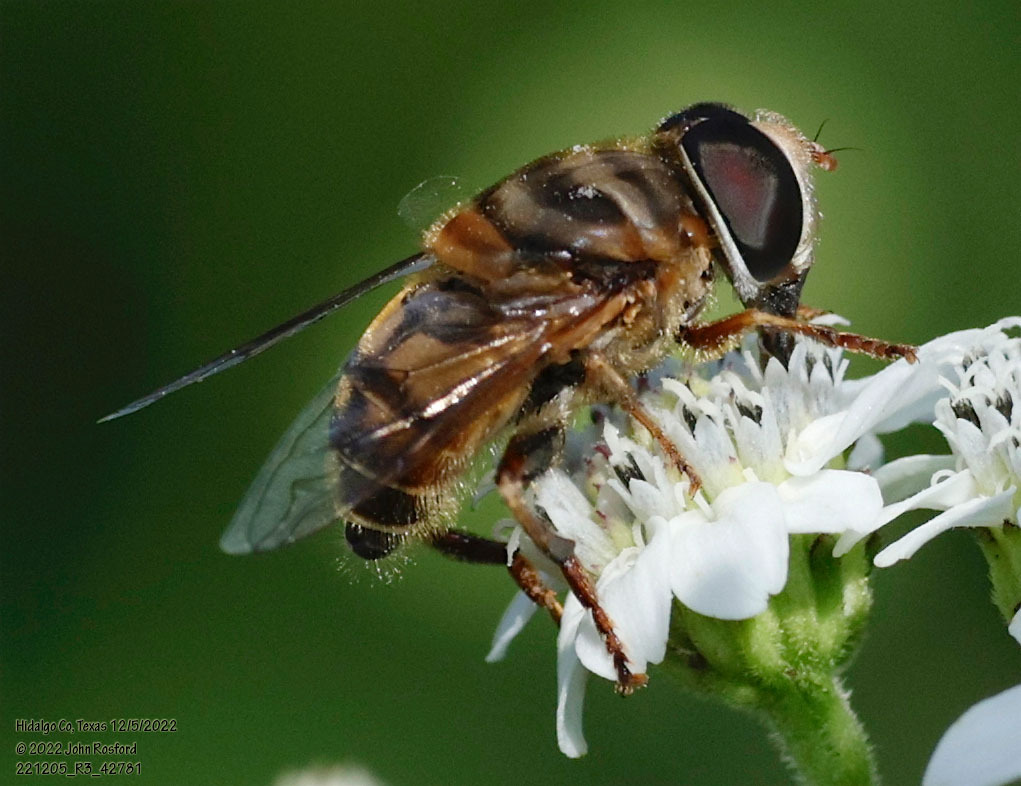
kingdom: Animalia
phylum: Arthropoda
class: Insecta
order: Diptera
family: Syrphidae
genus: Palpada
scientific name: Palpada vinetorum
